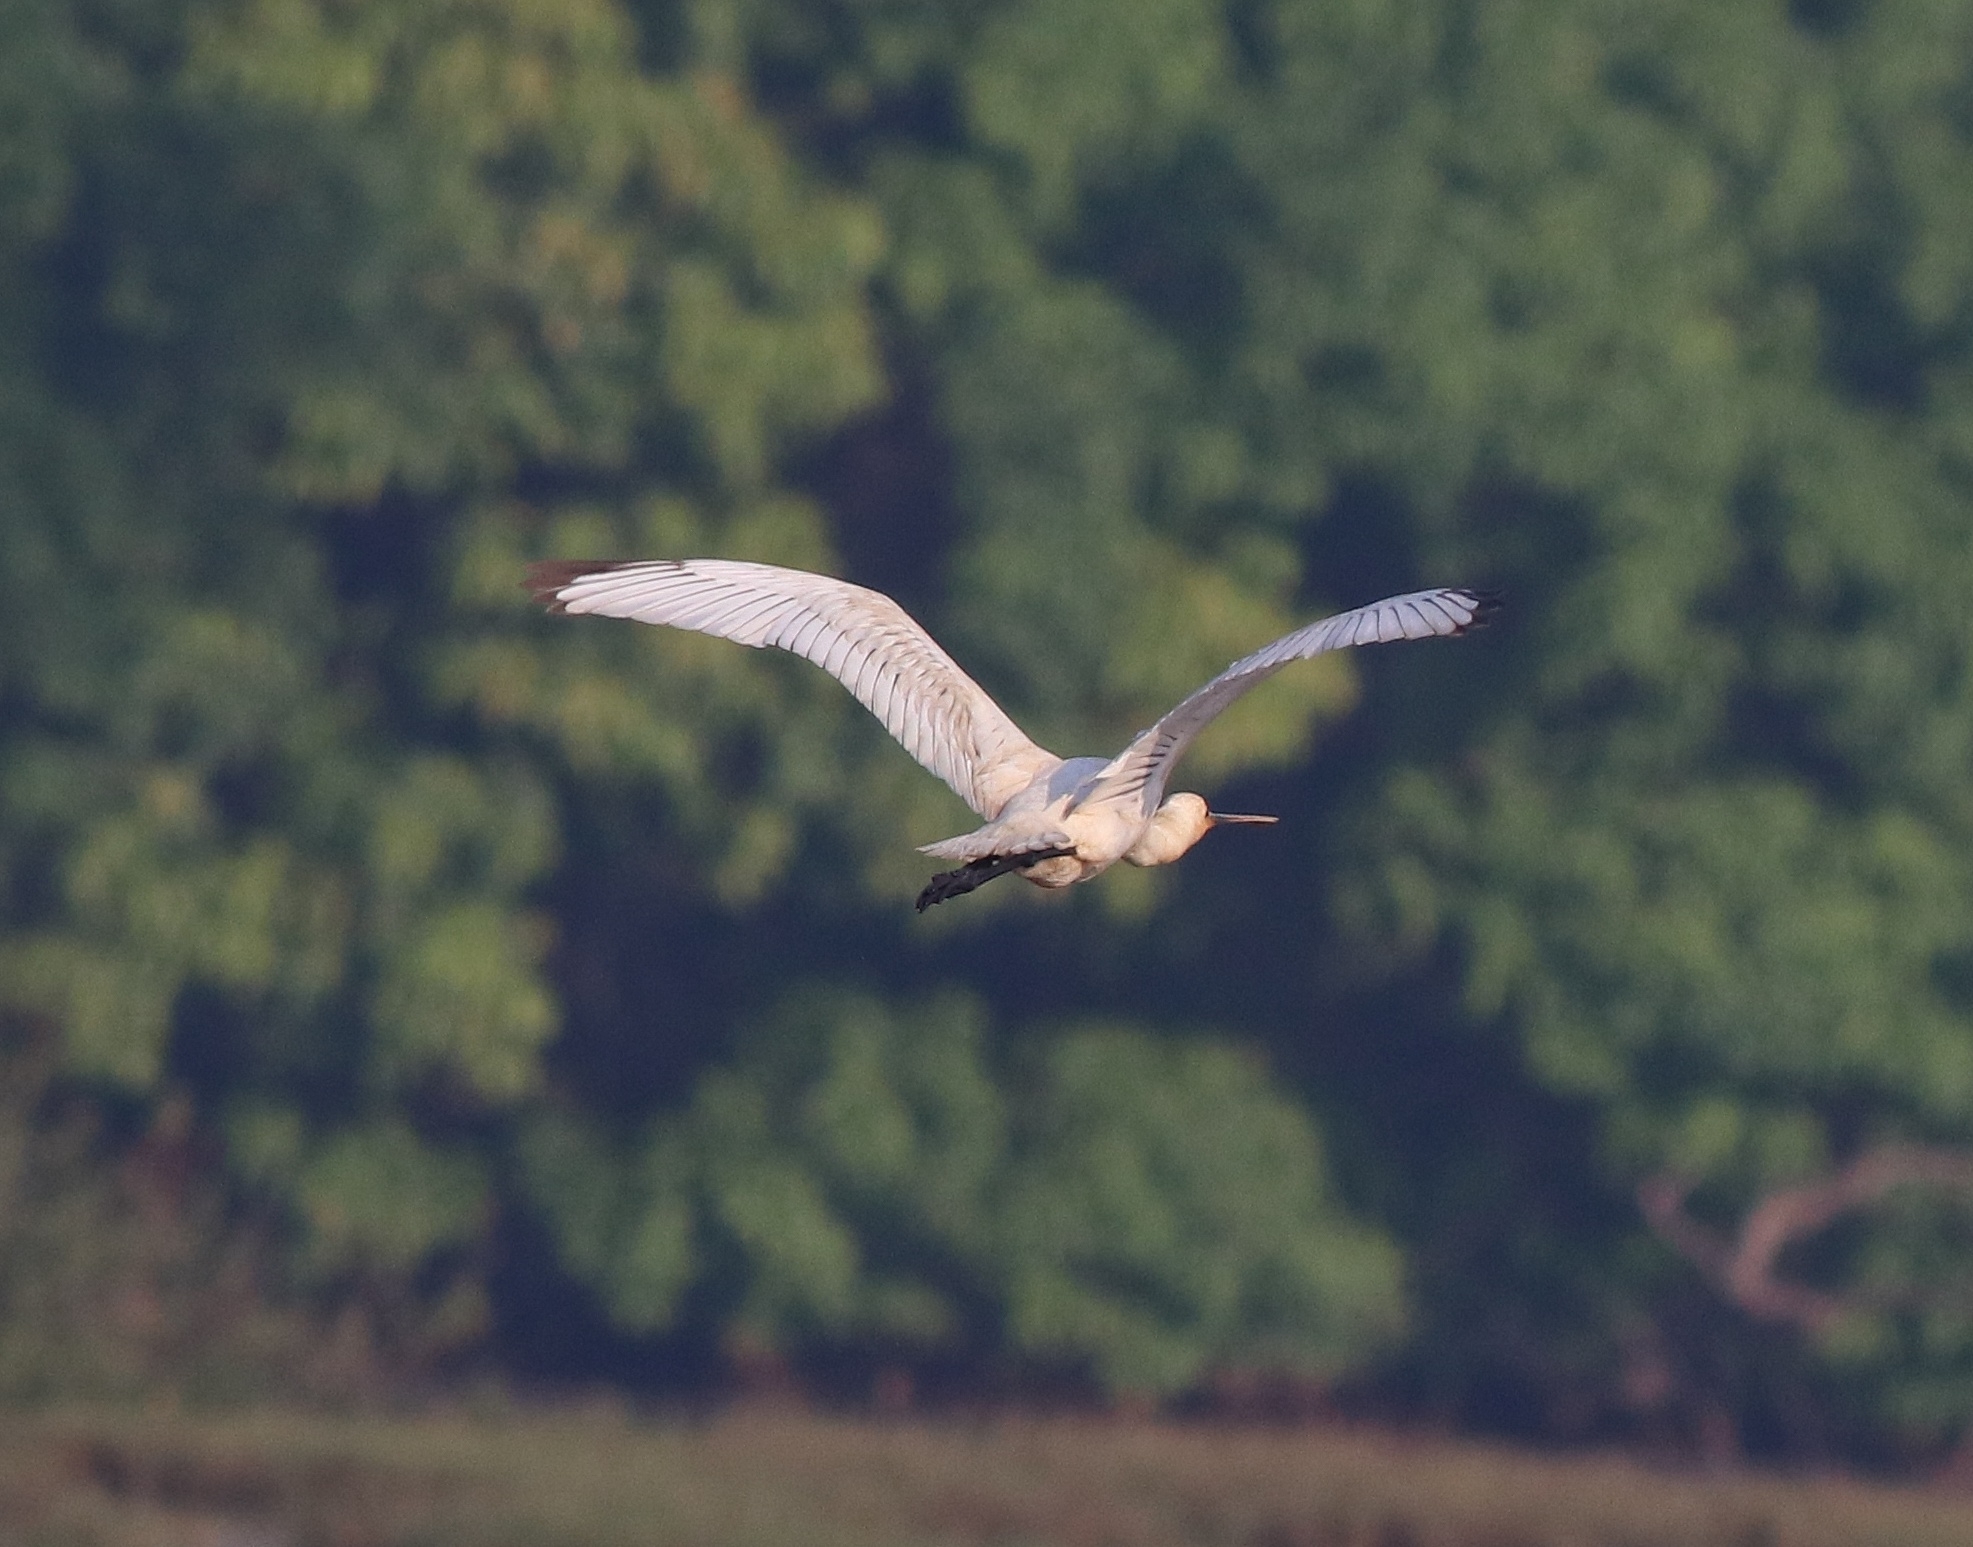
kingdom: Animalia
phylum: Chordata
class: Aves
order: Pelecaniformes
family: Threskiornithidae
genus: Platalea
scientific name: Platalea leucorodia
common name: Eurasian spoonbill
